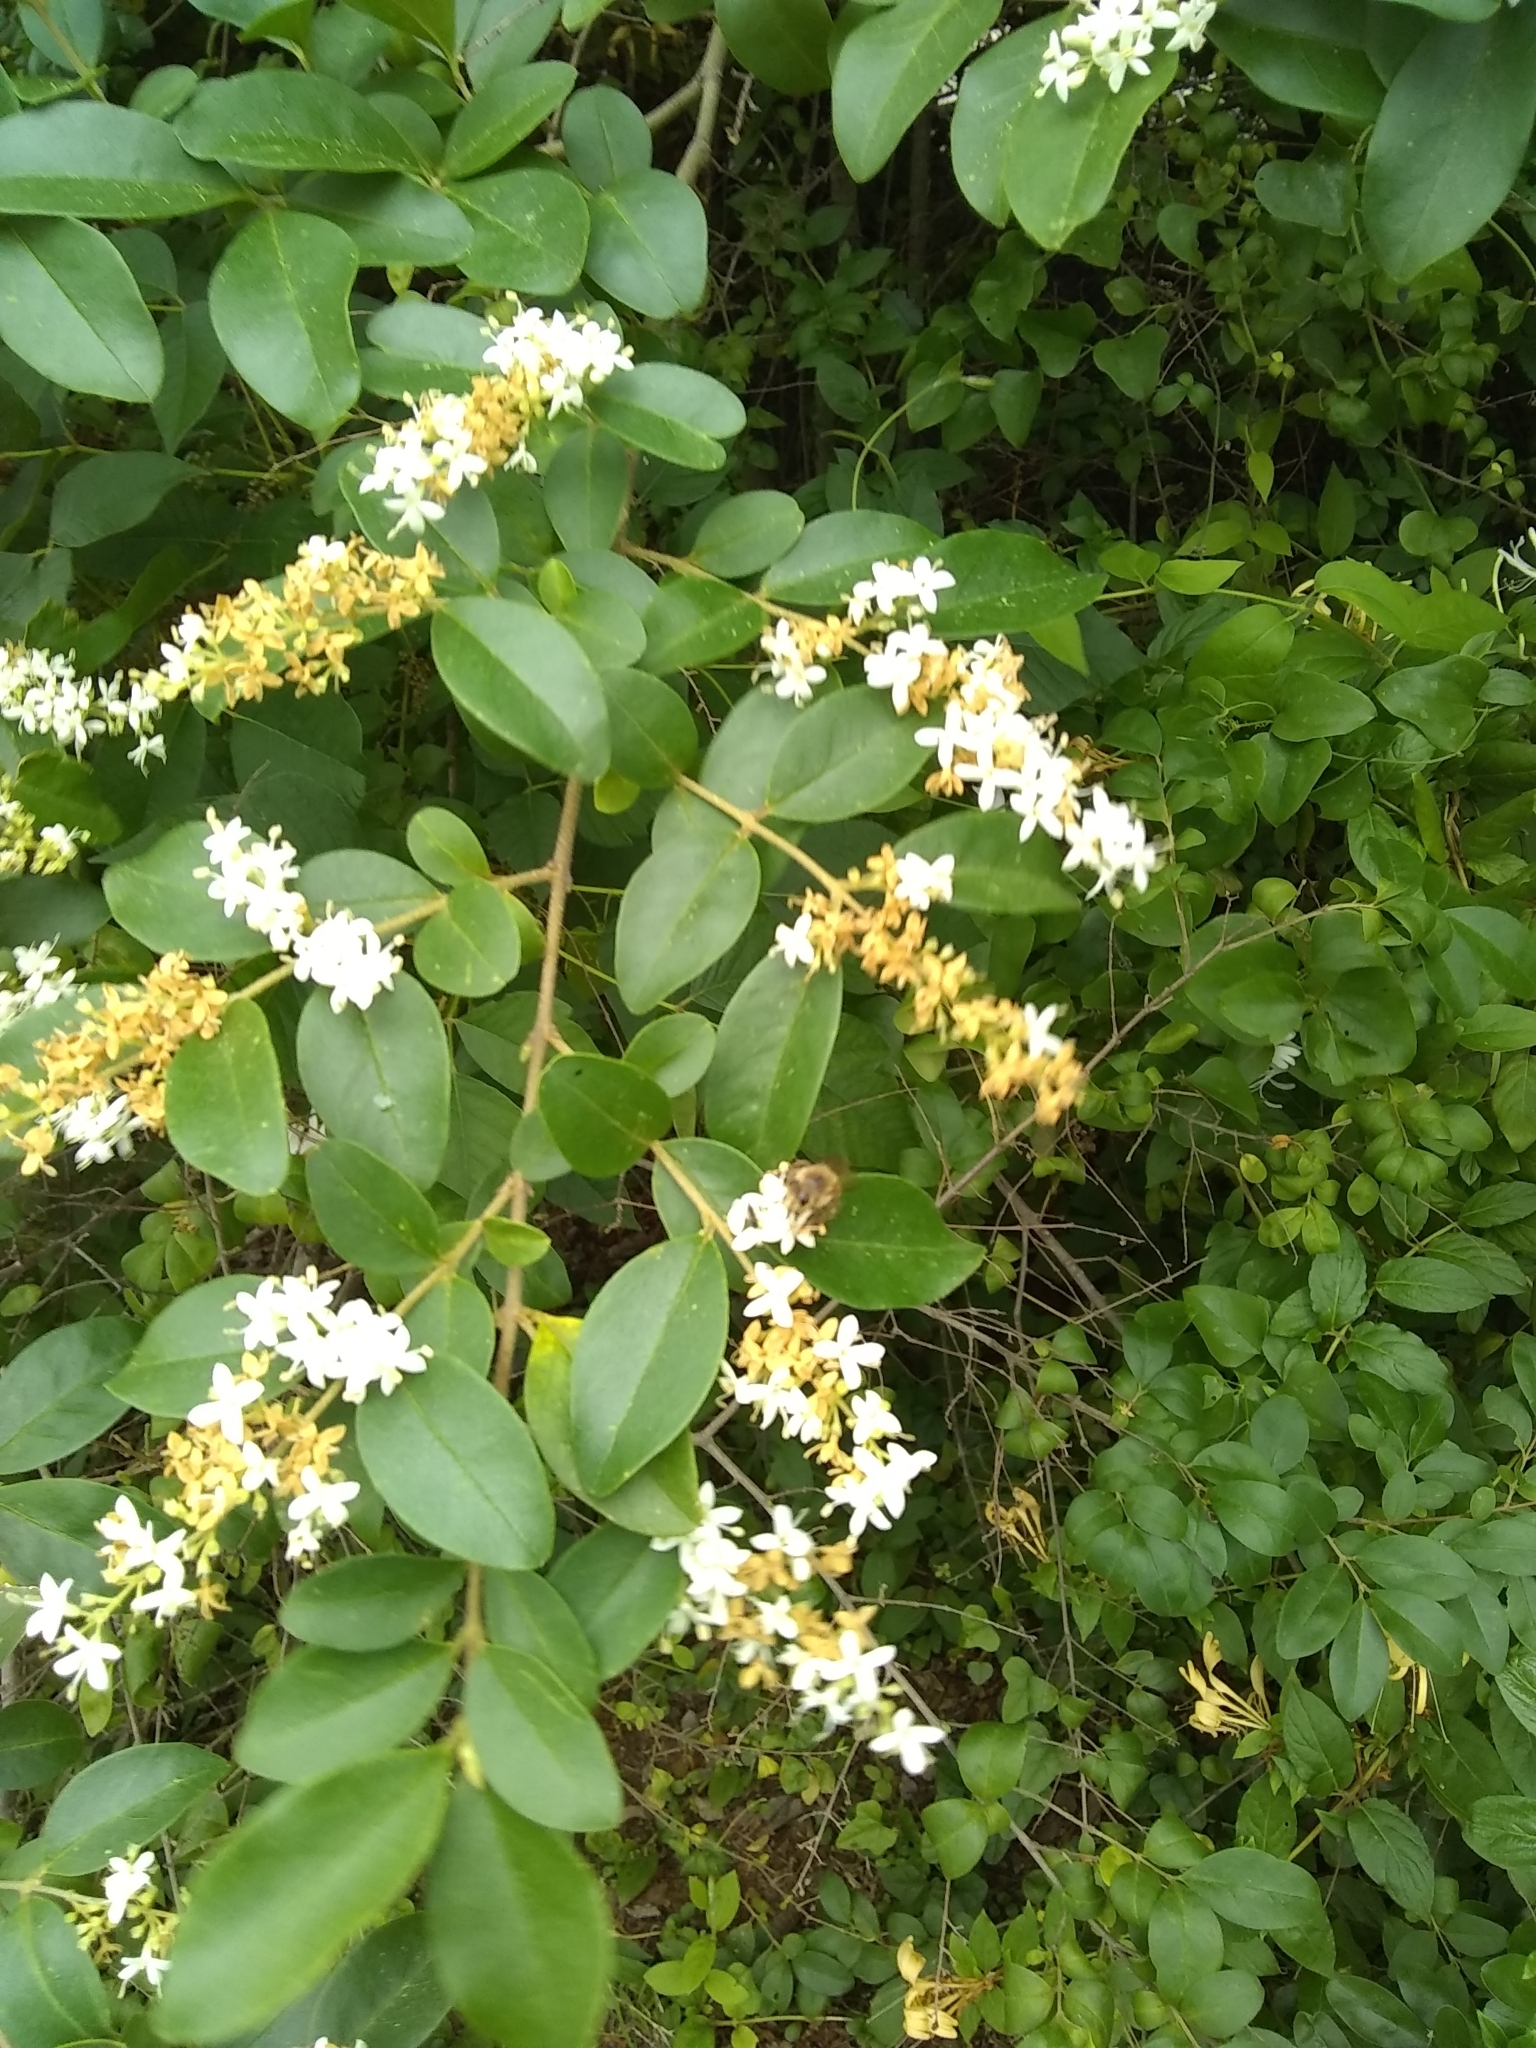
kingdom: Animalia
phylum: Arthropoda
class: Insecta
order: Hymenoptera
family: Apidae
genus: Apis
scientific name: Apis mellifera
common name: Honey bee
